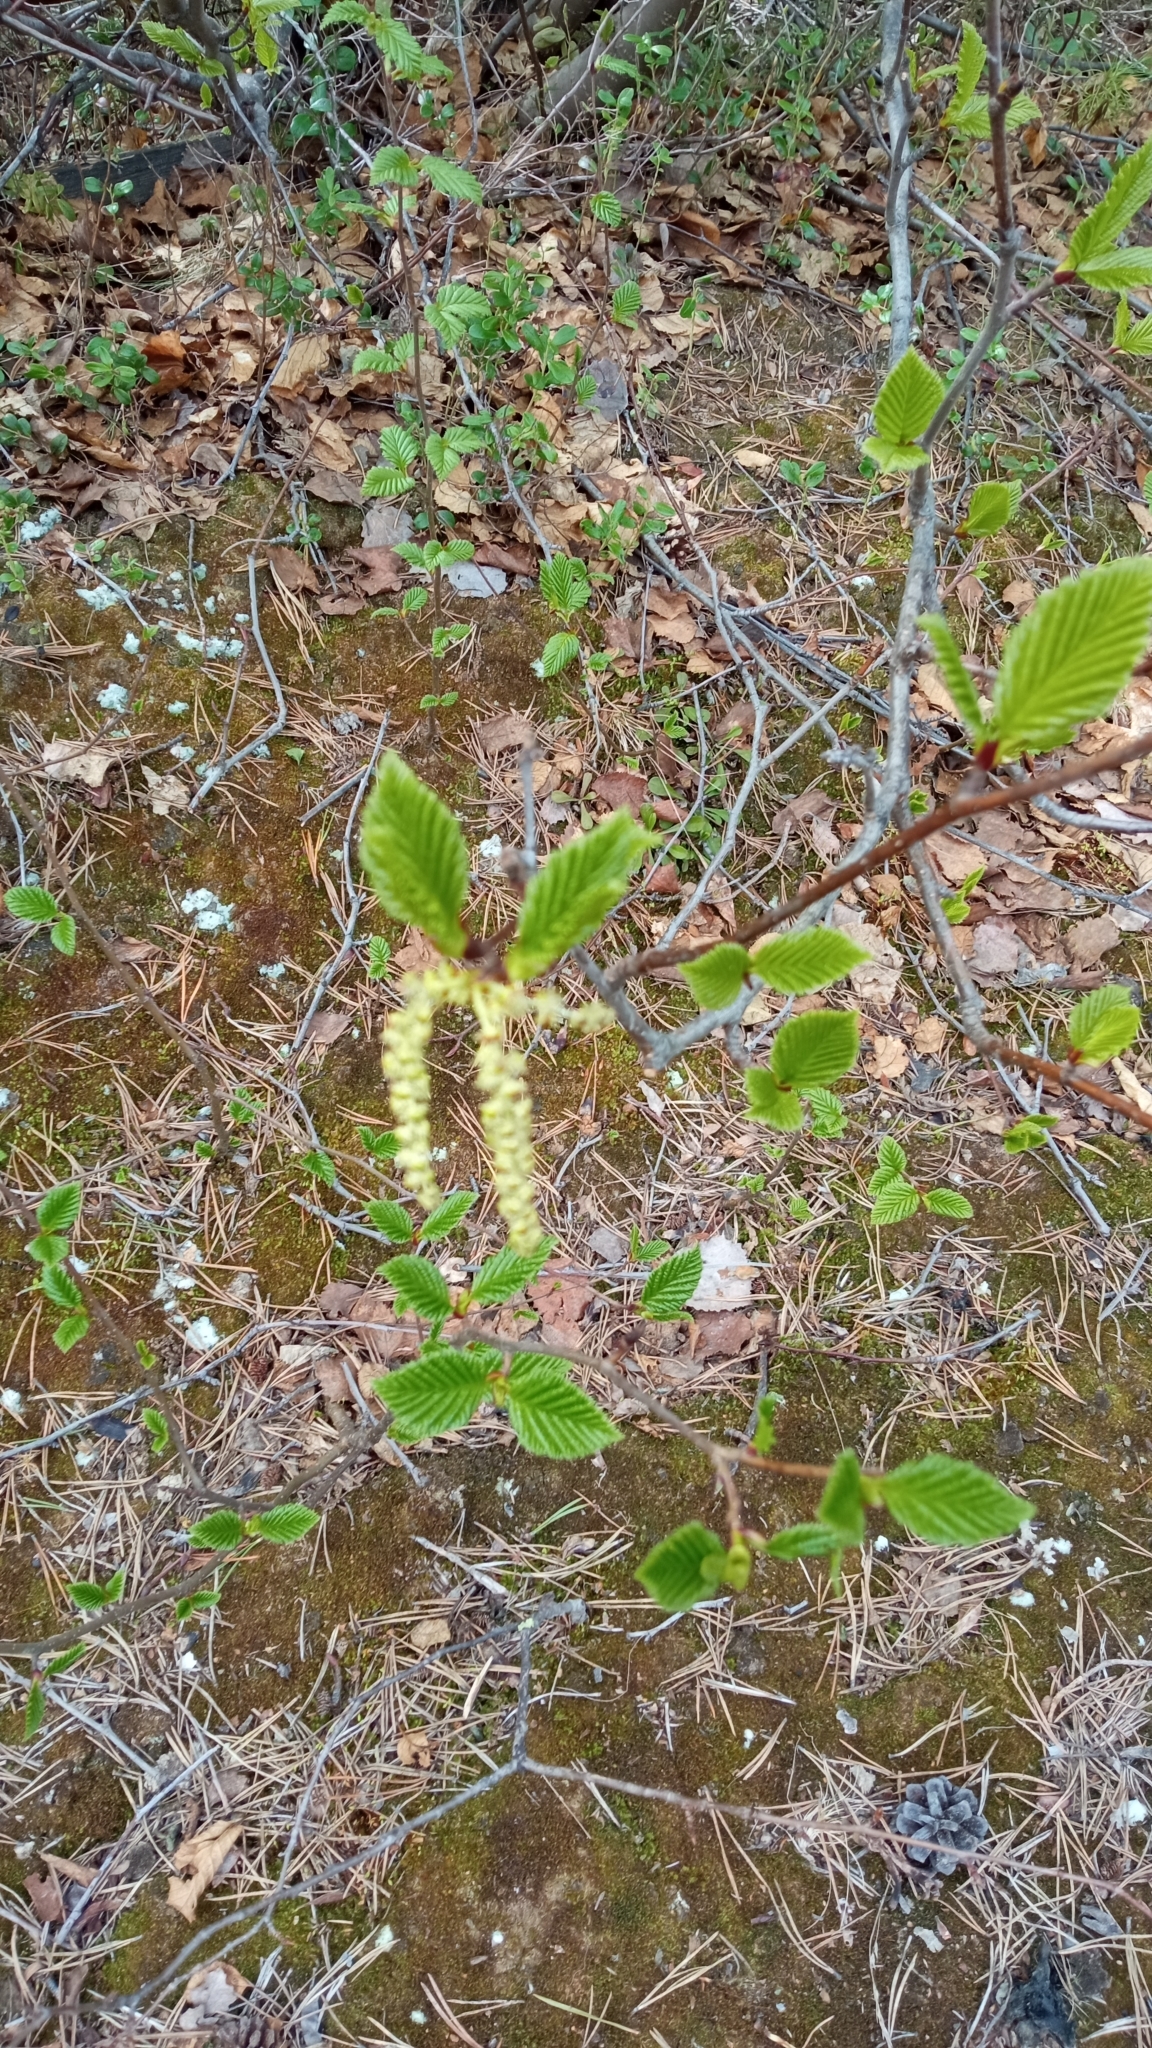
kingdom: Plantae
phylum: Tracheophyta
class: Magnoliopsida
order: Fagales
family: Betulaceae
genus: Alnus
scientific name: Alnus alnobetula
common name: Green alder
